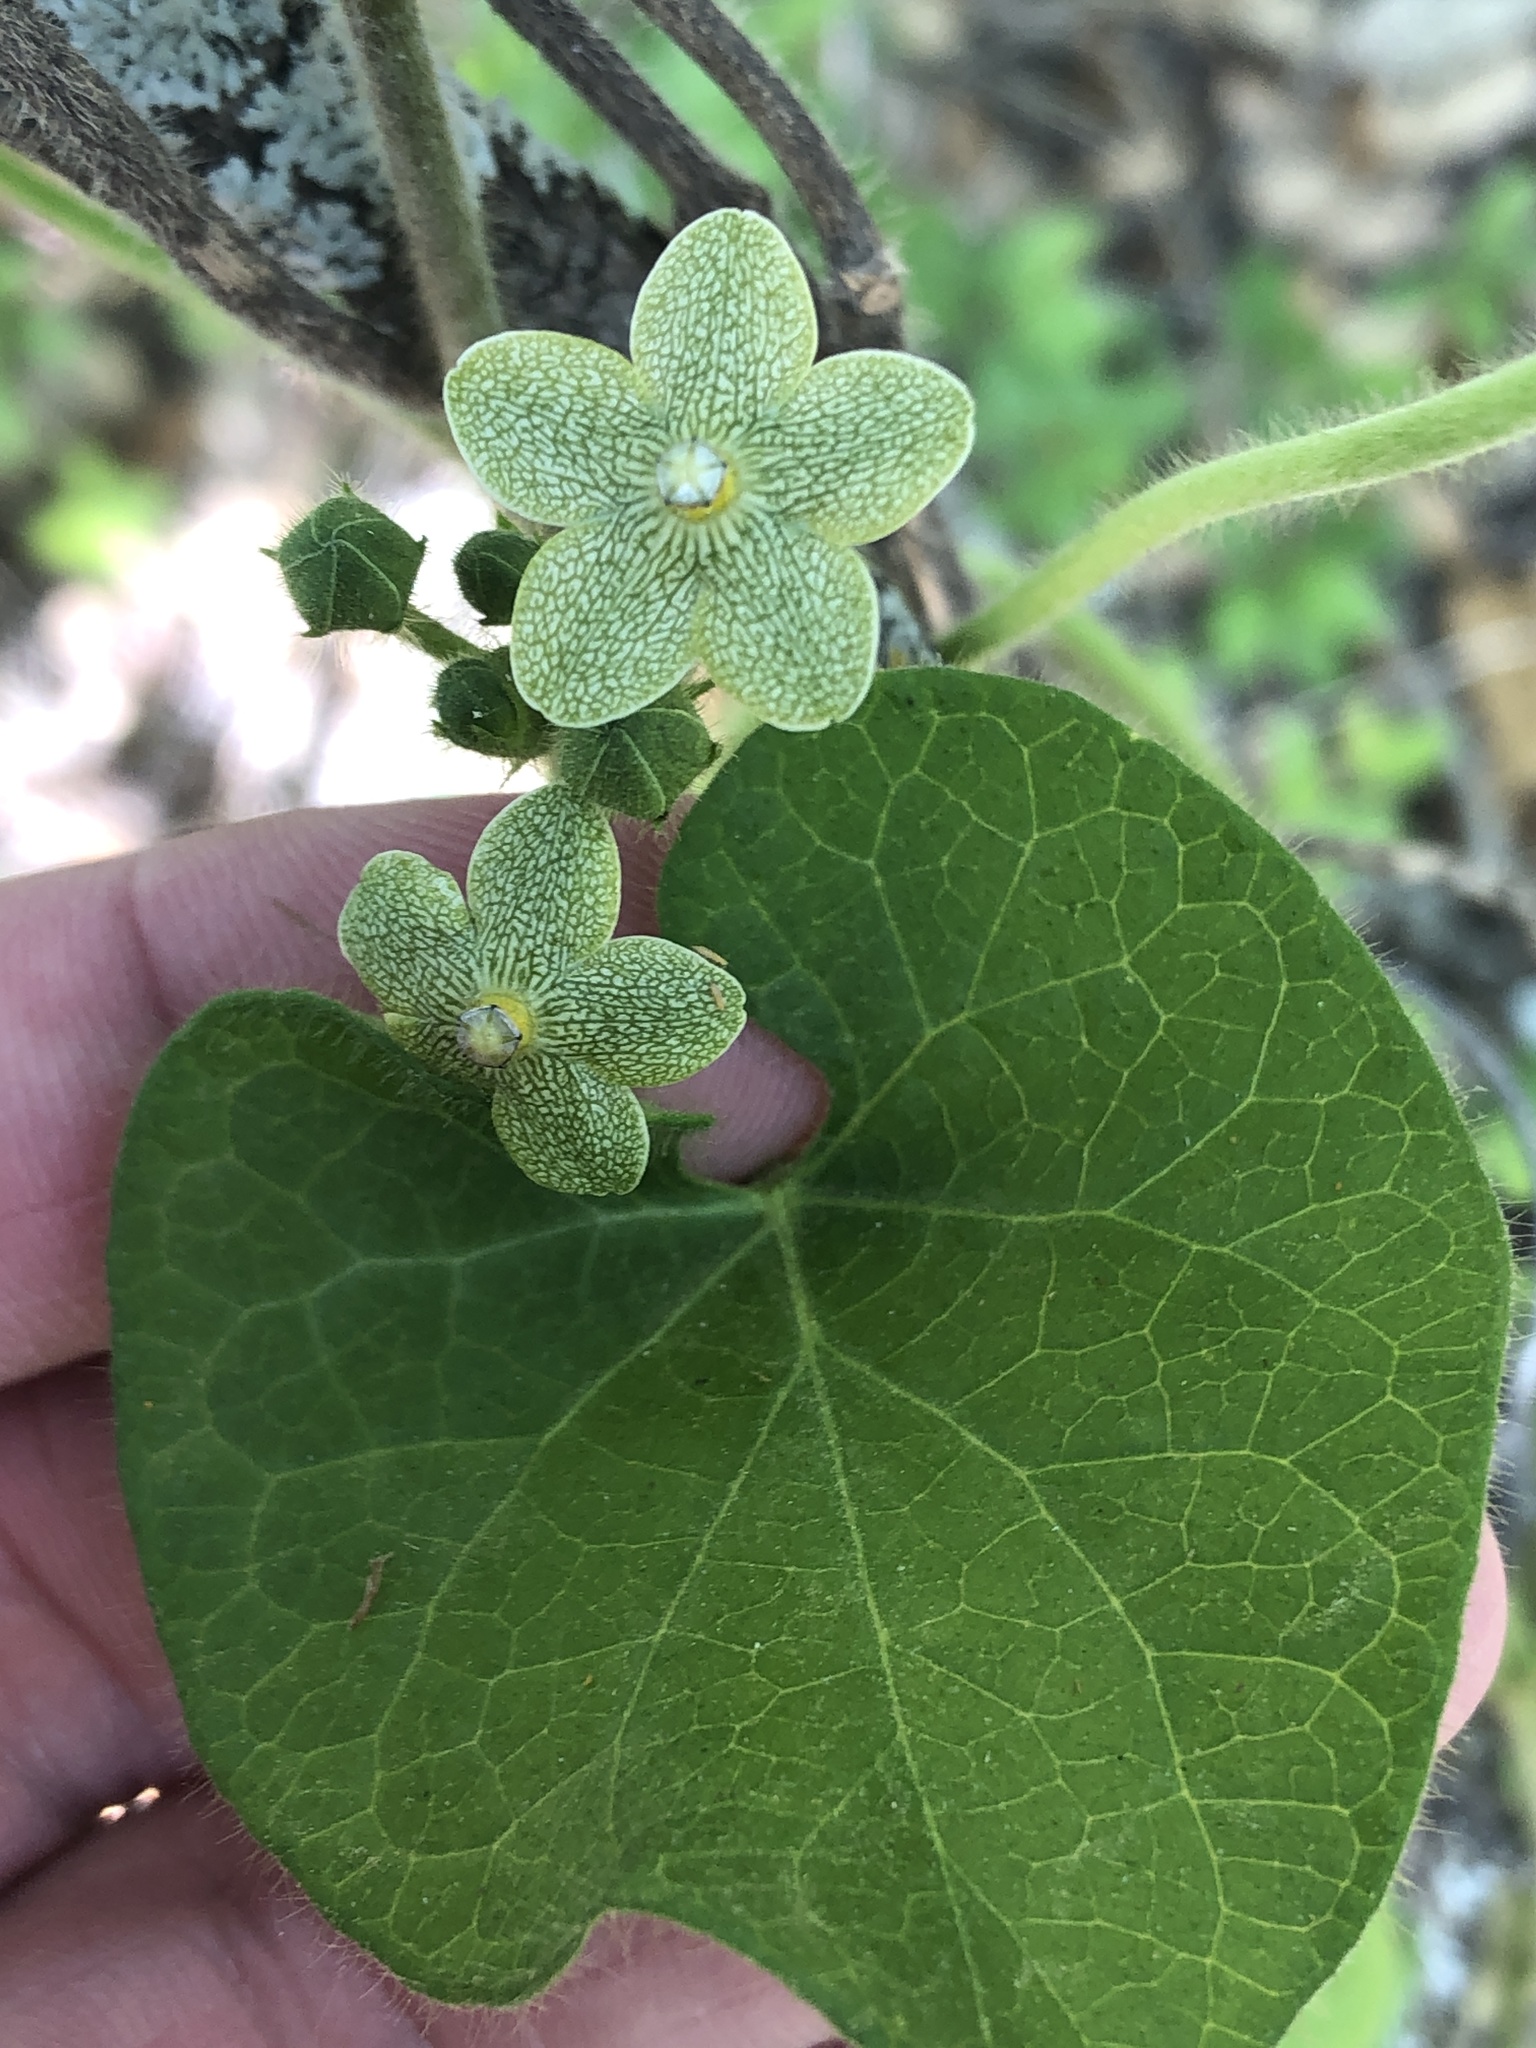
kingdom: Plantae
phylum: Tracheophyta
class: Magnoliopsida
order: Gentianales
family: Apocynaceae
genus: Dictyanthus
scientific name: Dictyanthus reticulatus
